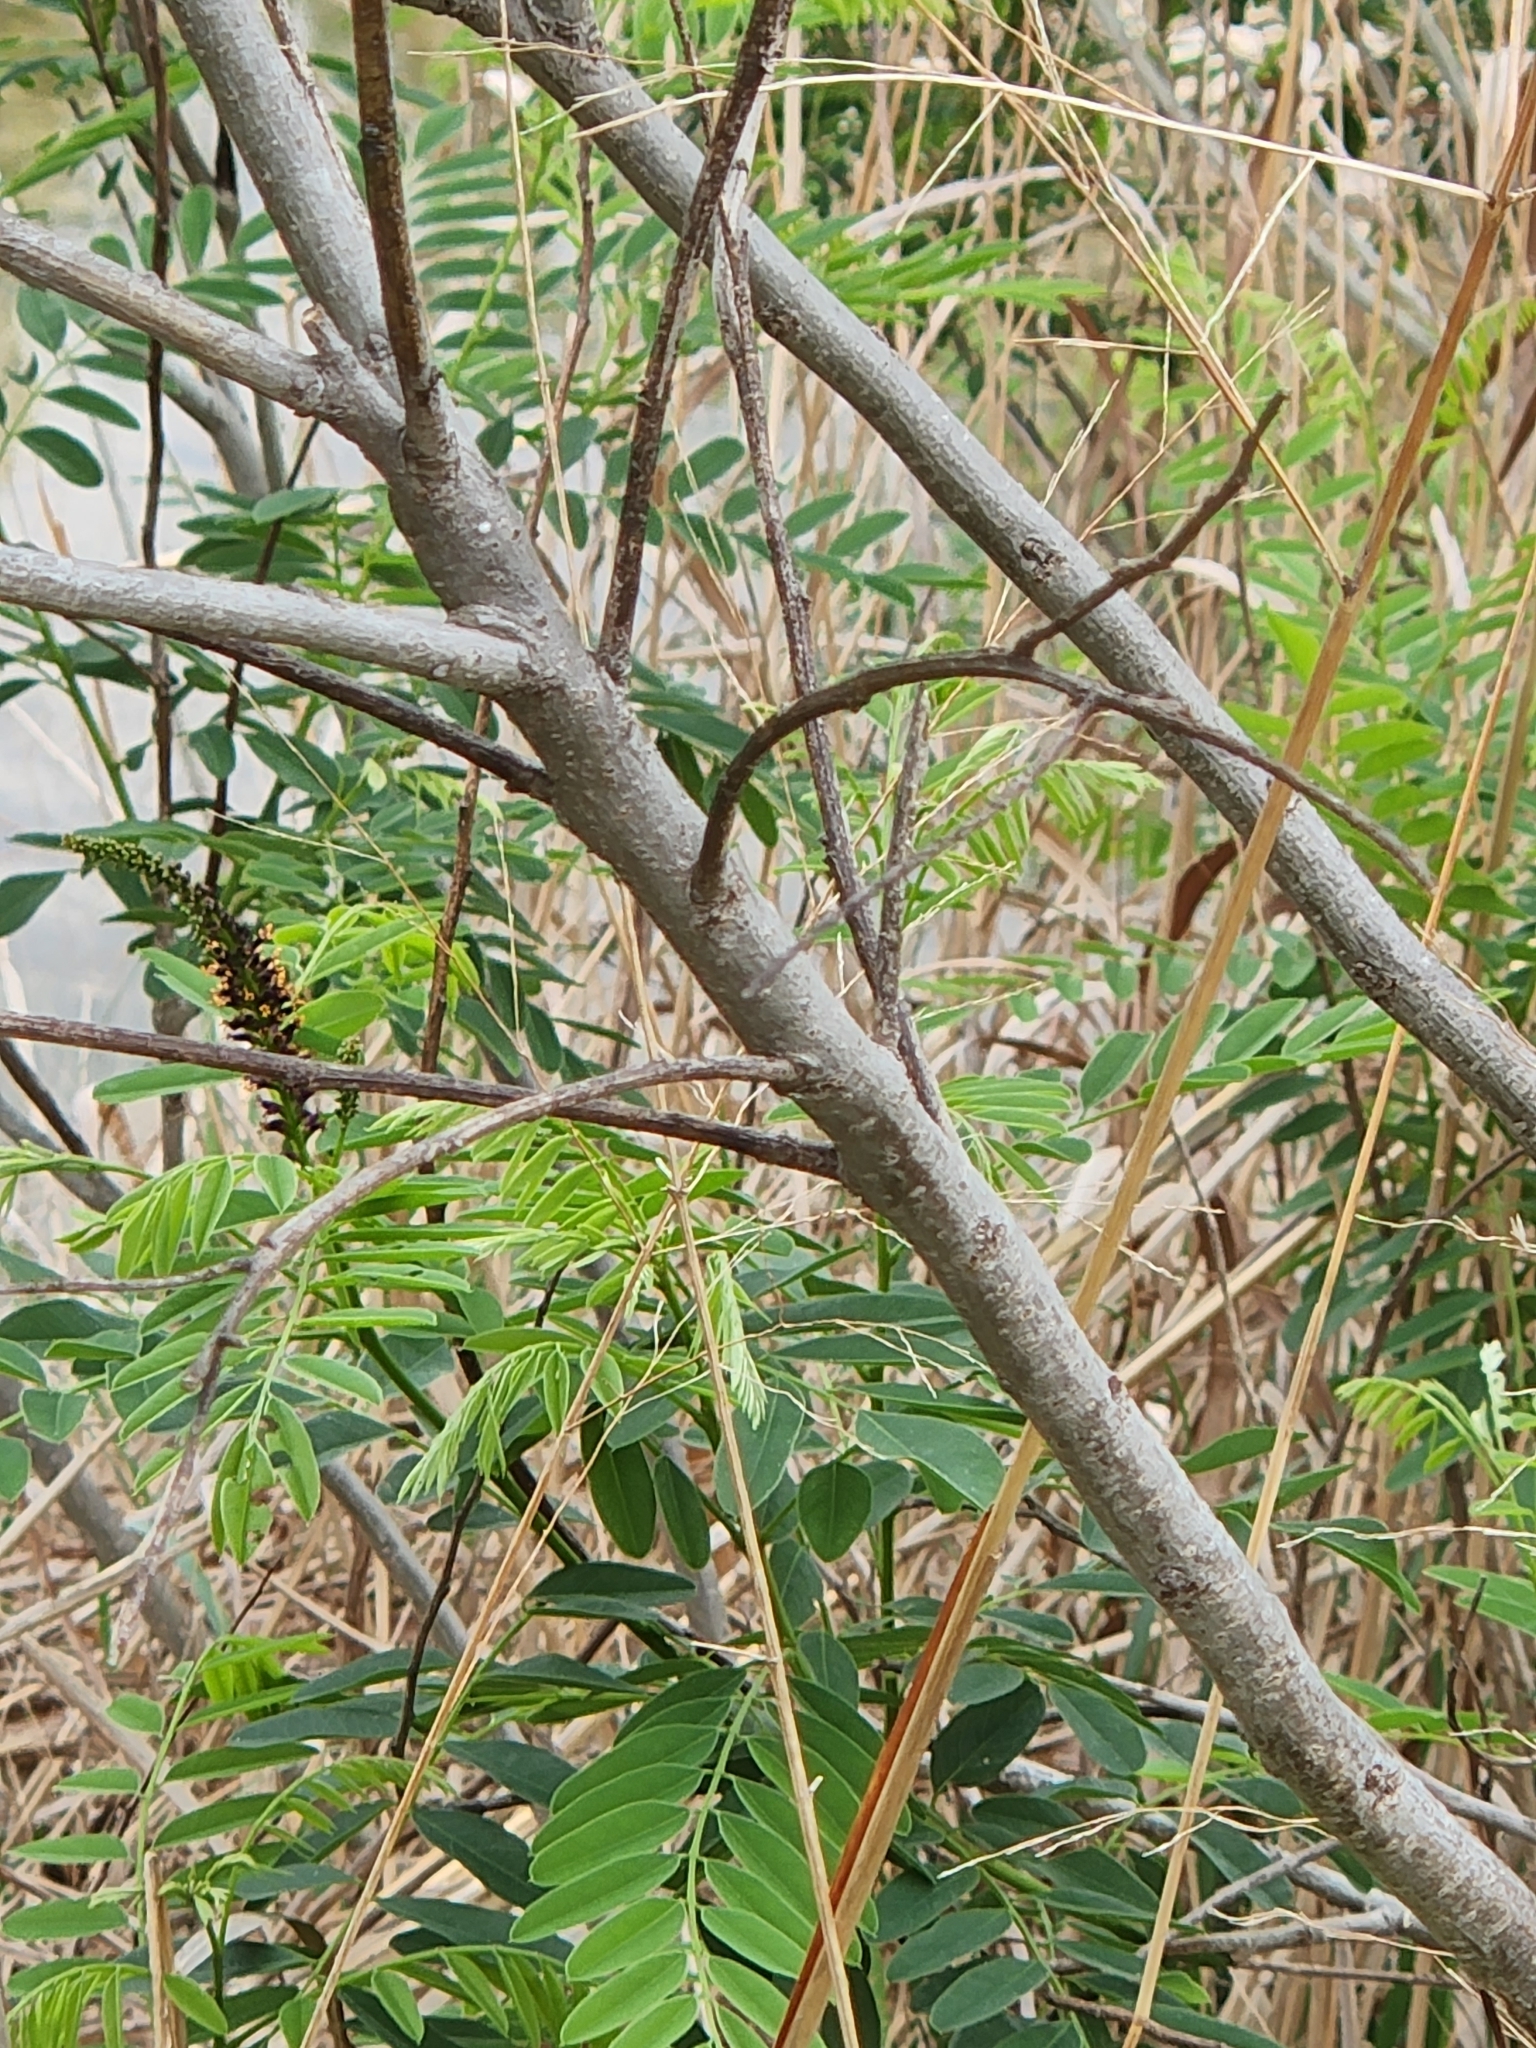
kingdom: Plantae
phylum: Tracheophyta
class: Magnoliopsida
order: Fabales
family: Fabaceae
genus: Amorpha
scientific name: Amorpha fruticosa
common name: False indigo
